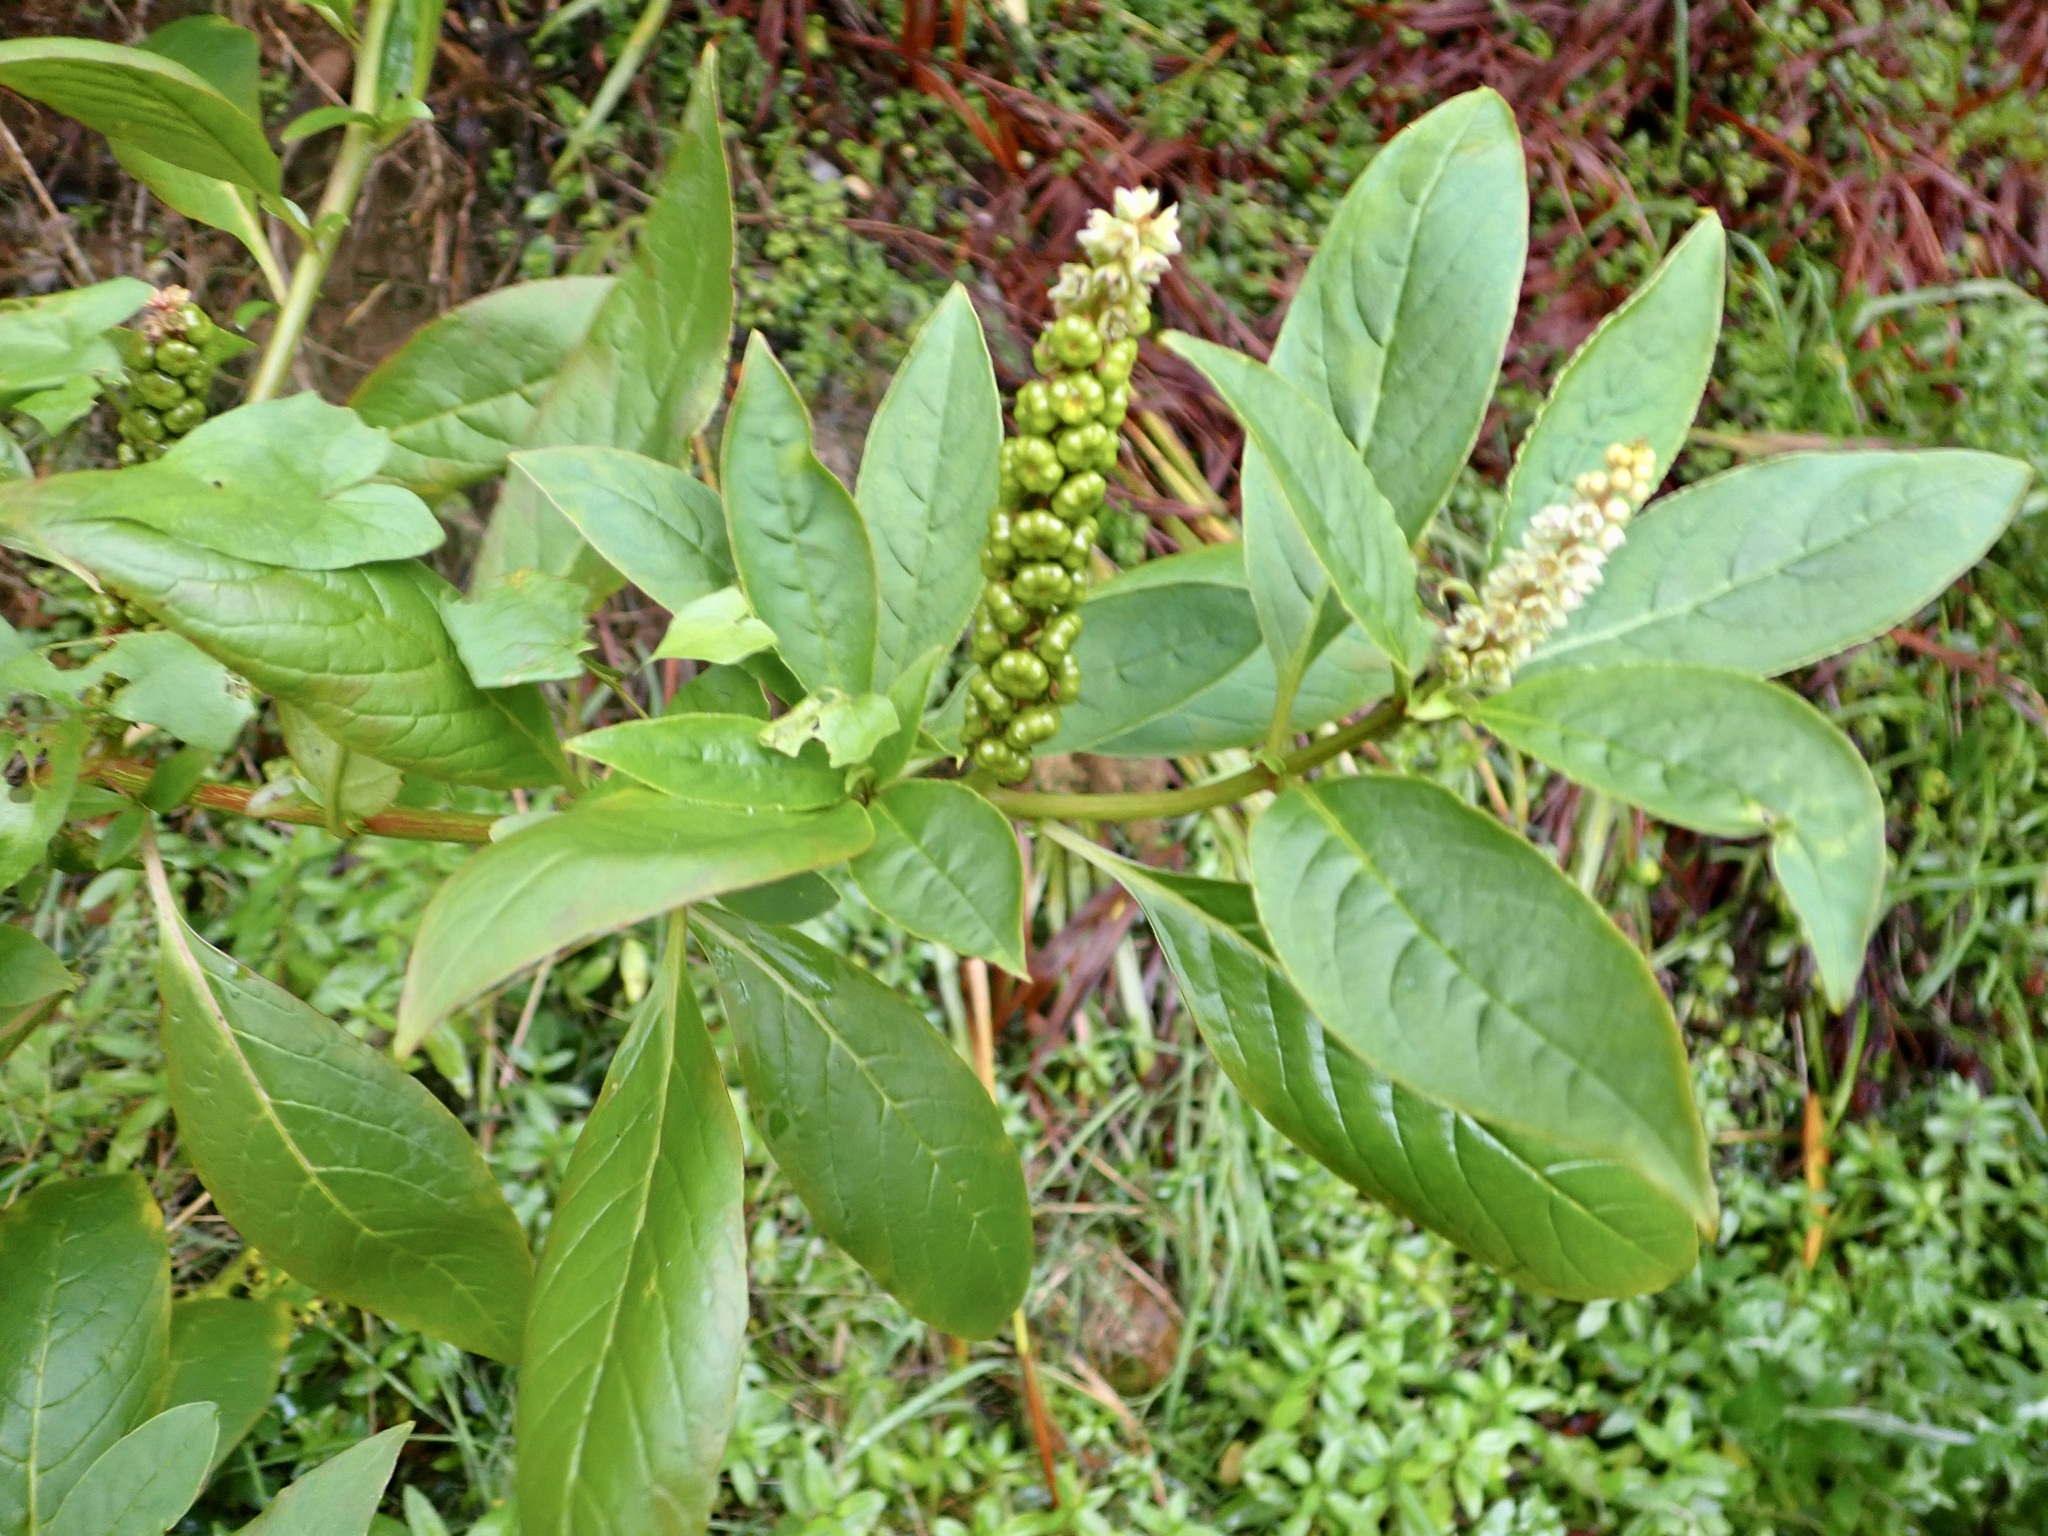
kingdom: Plantae
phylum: Tracheophyta
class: Magnoliopsida
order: Caryophyllales
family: Phytolaccaceae
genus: Phytolacca
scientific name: Phytolacca icosandra
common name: Button pokeweed
